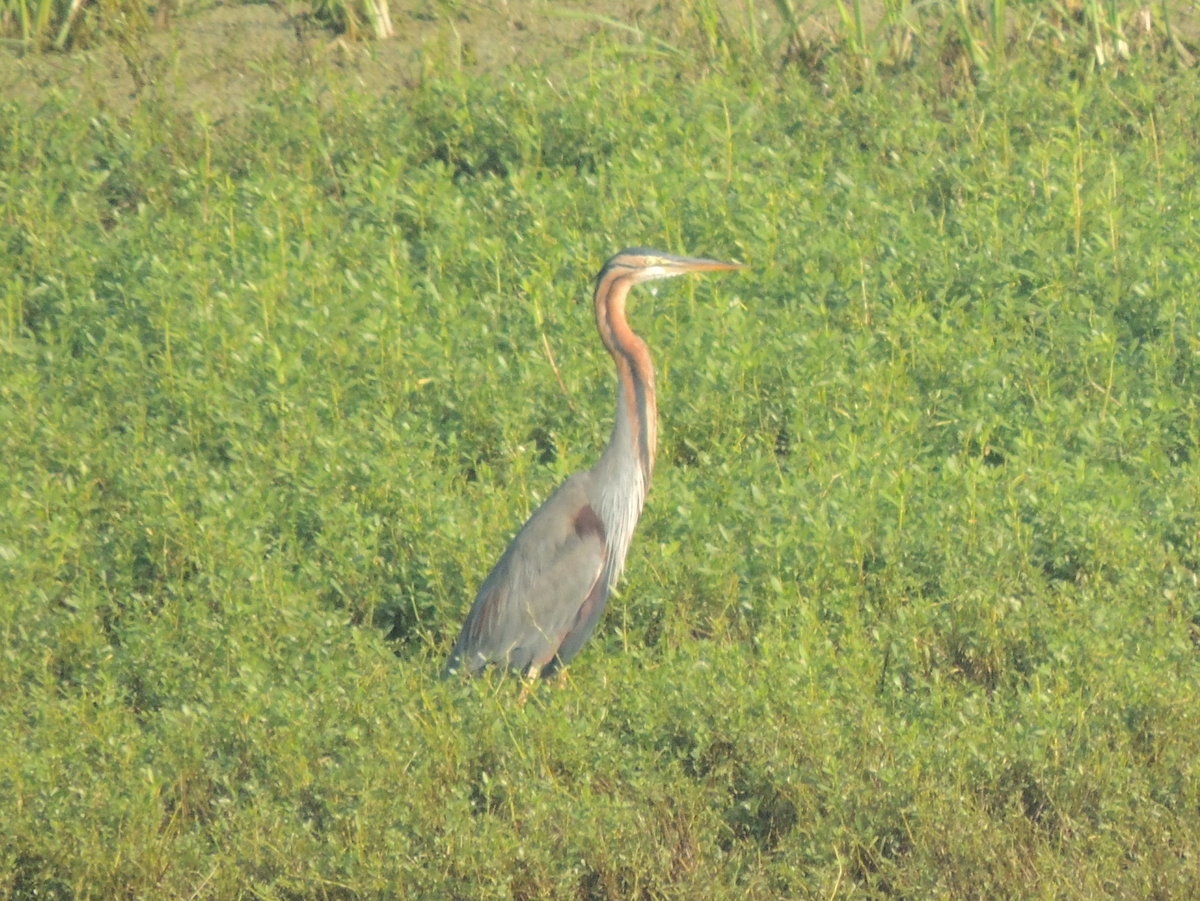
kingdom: Animalia
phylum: Chordata
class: Aves
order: Pelecaniformes
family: Ardeidae
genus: Ardea
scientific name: Ardea purpurea
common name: Purple heron
